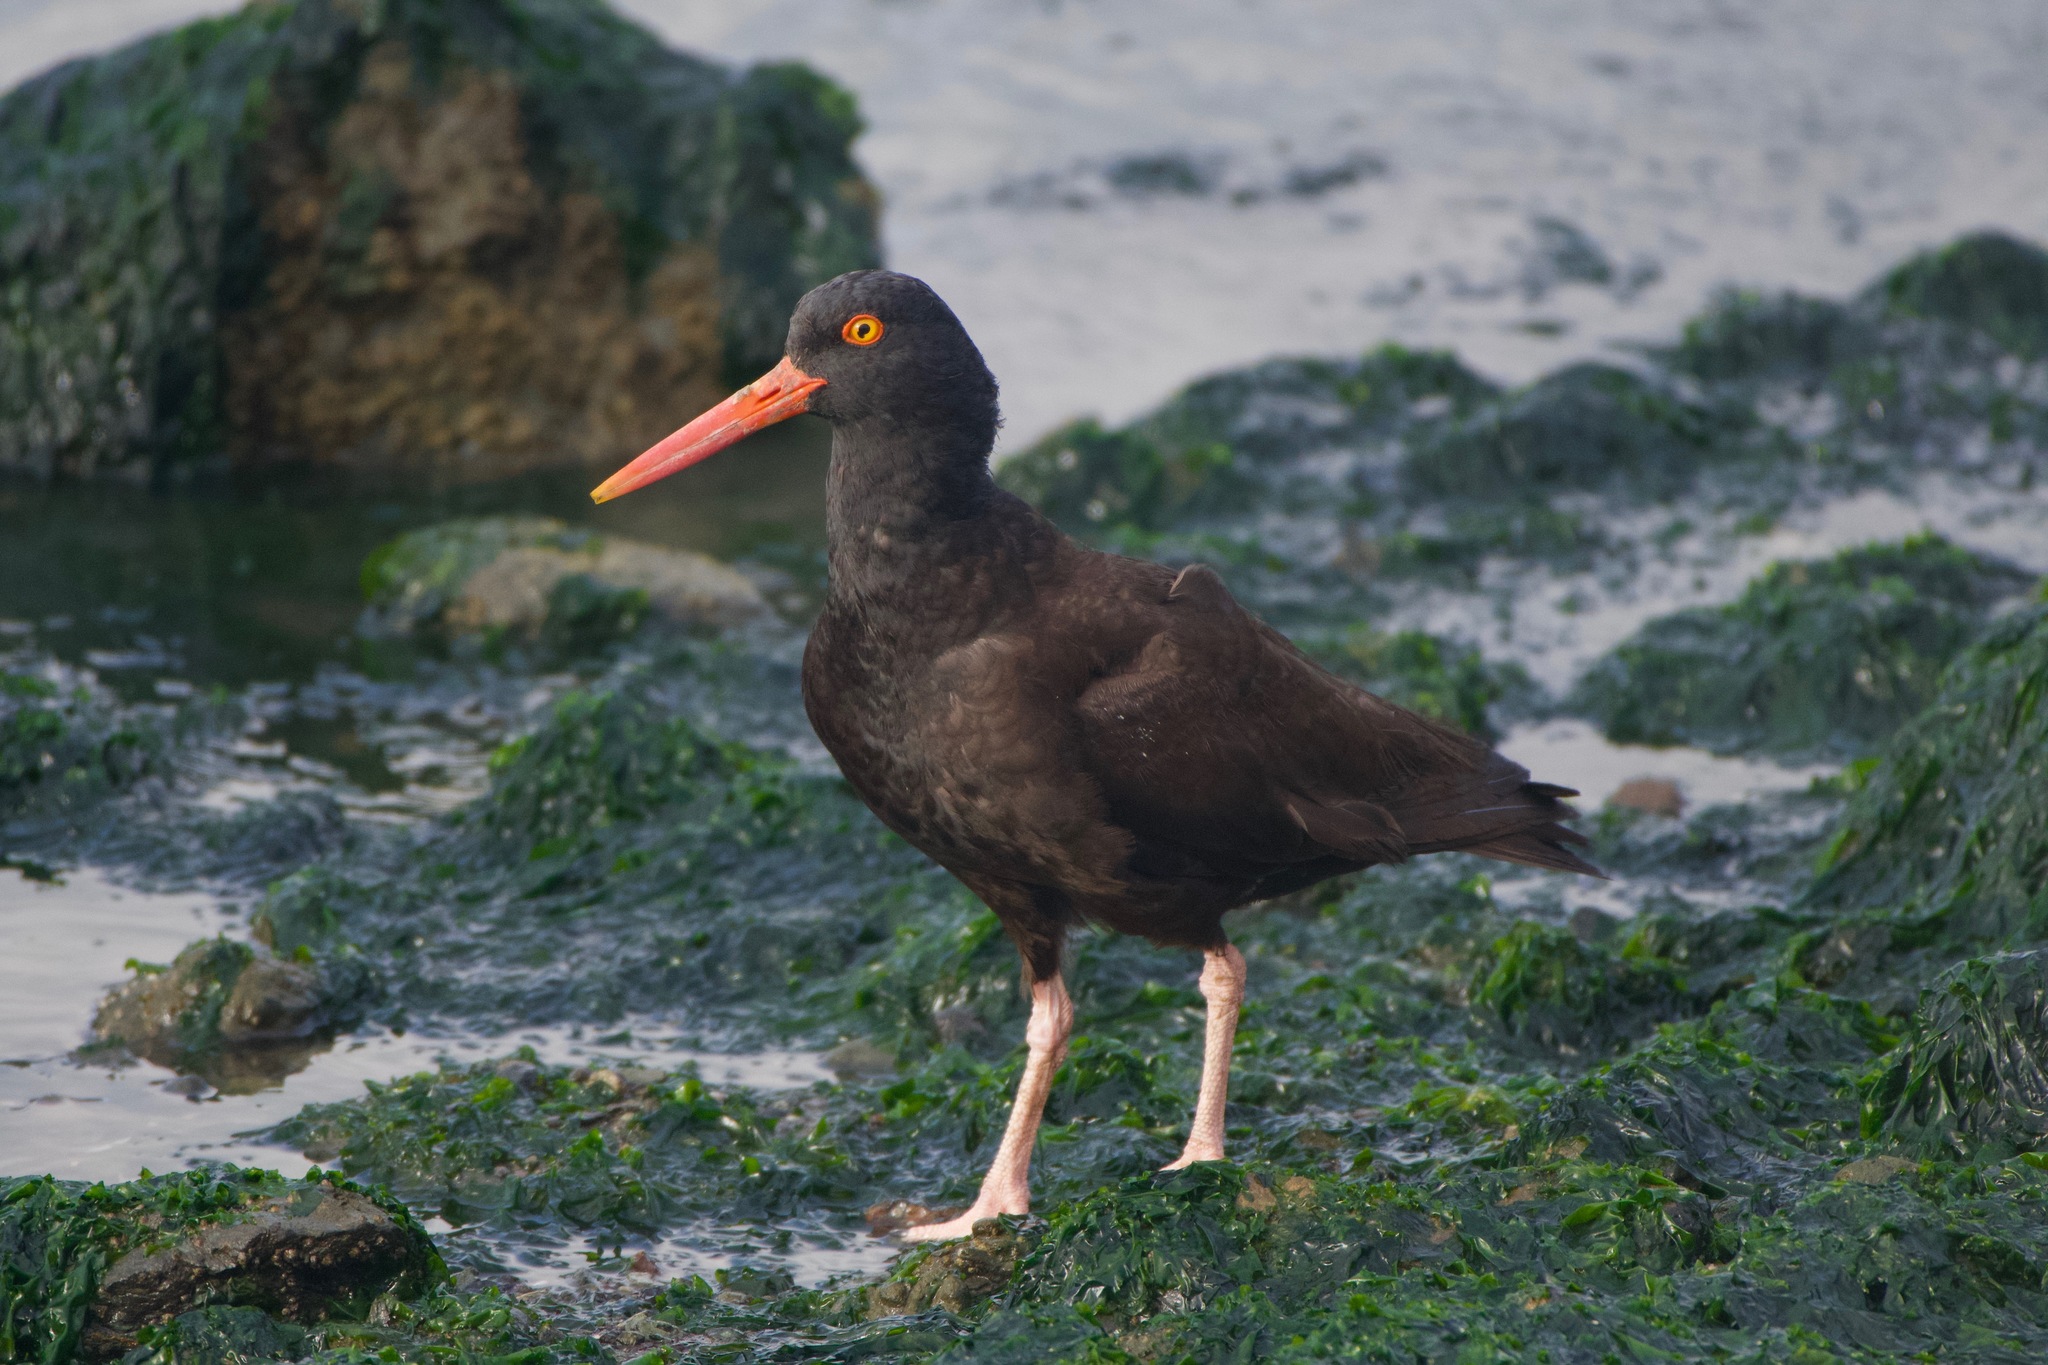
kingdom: Animalia
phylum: Chordata
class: Aves
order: Charadriiformes
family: Haematopodidae
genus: Haematopus
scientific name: Haematopus bachmani
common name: Black oystercatcher
